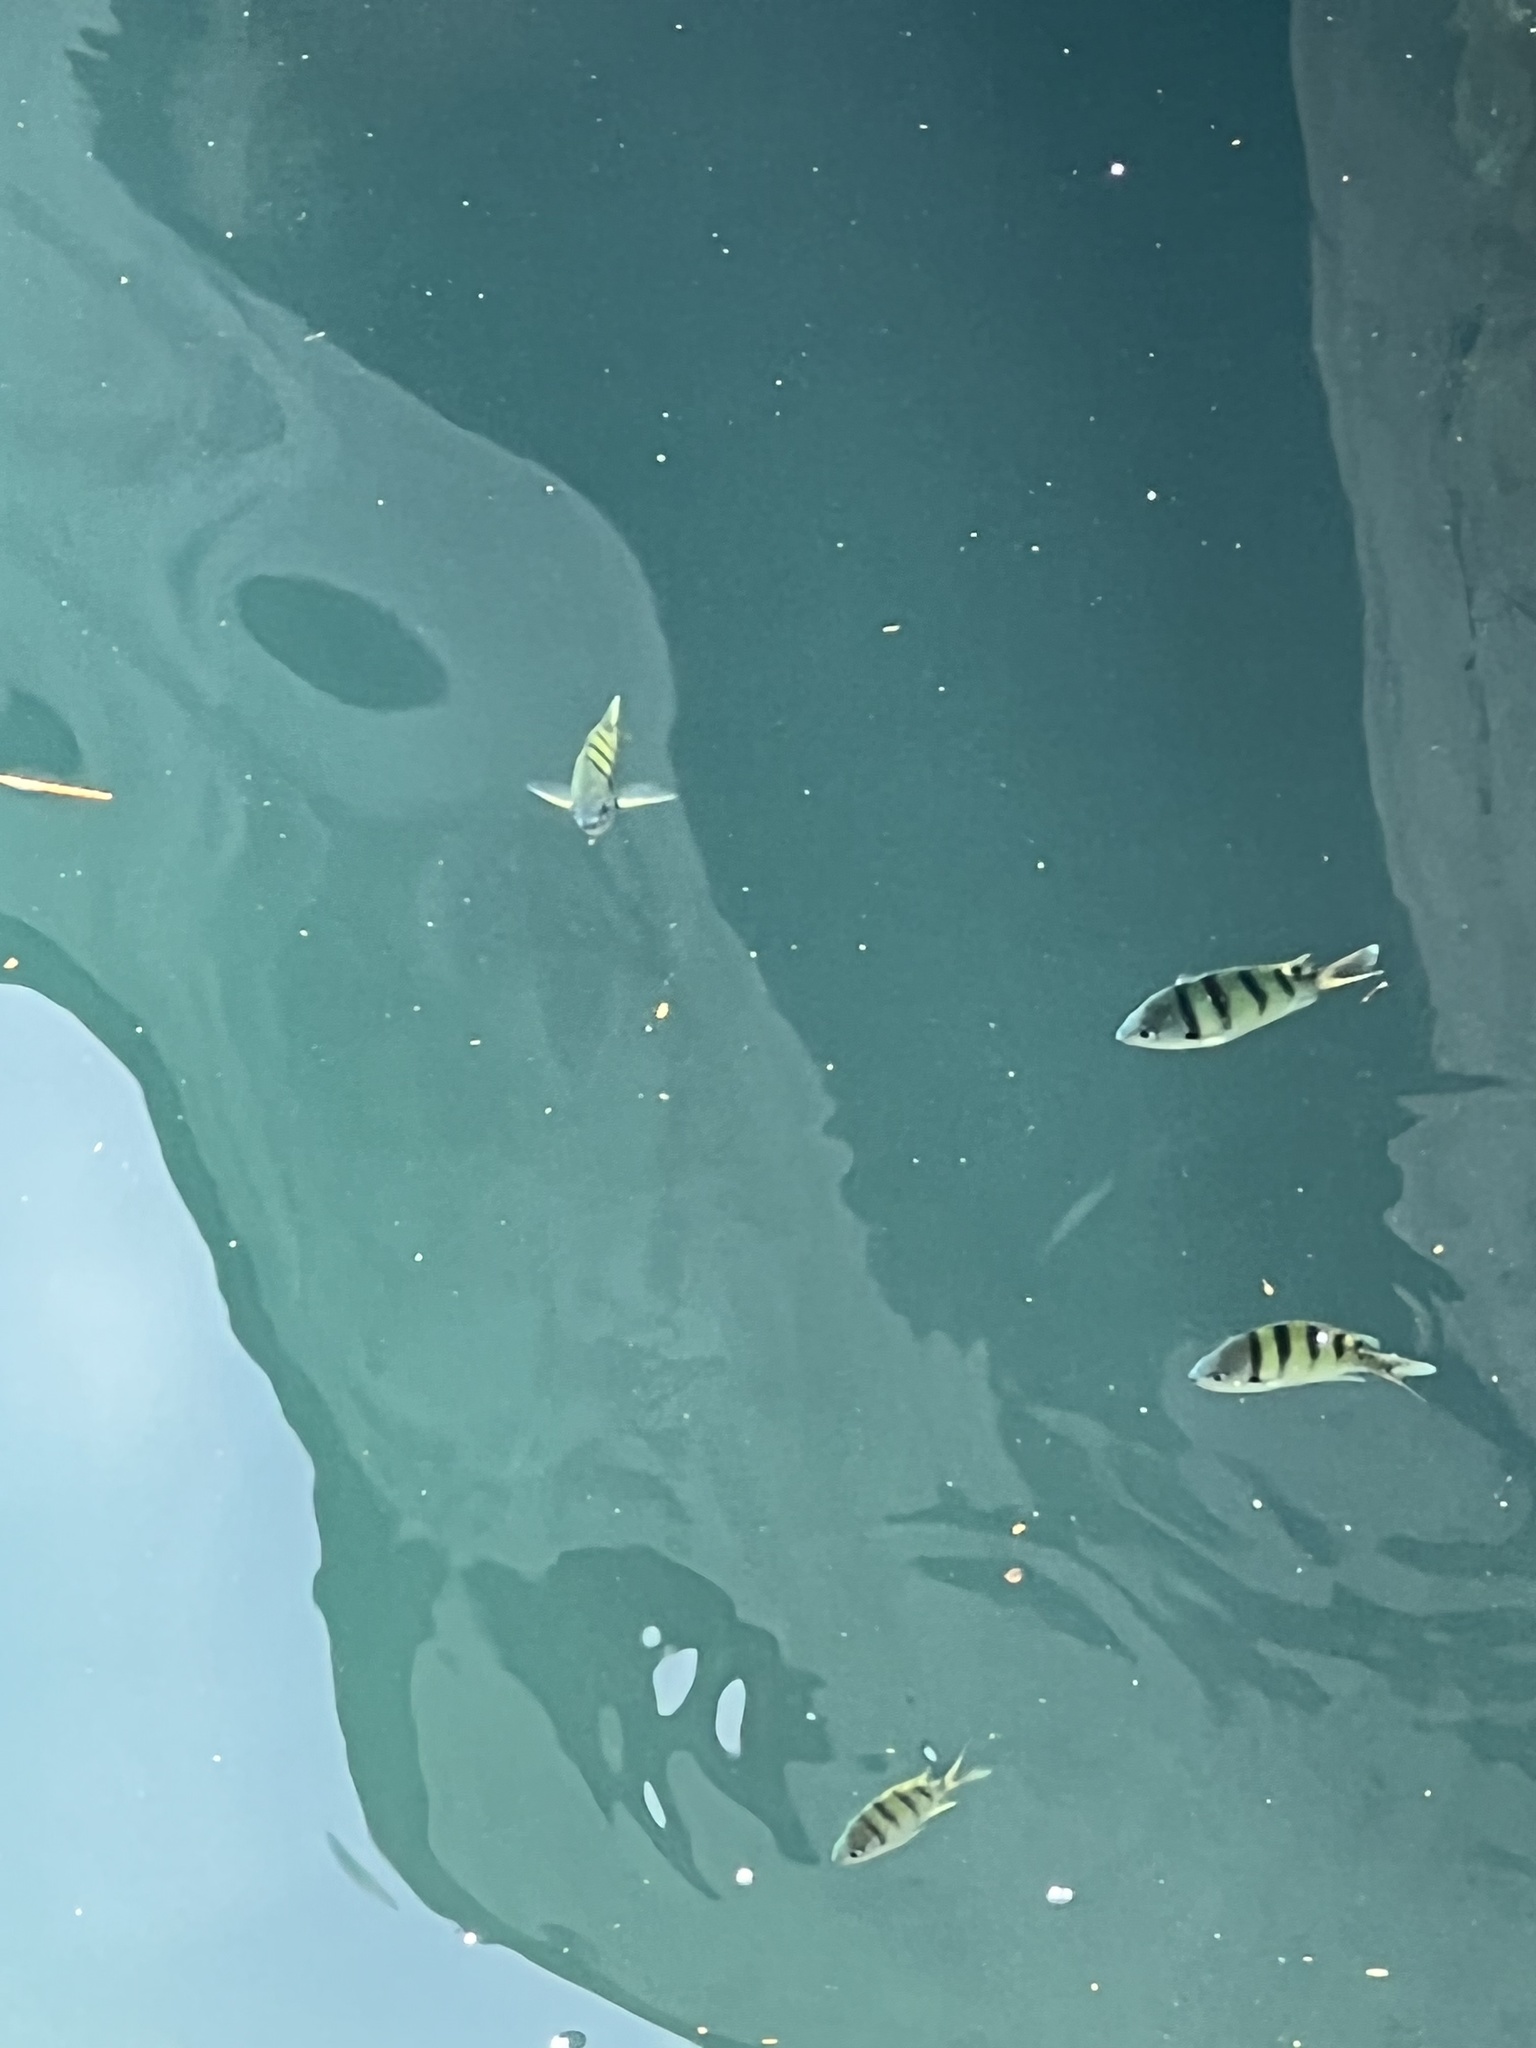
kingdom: Animalia
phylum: Chordata
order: Perciformes
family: Pomacentridae
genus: Abudefduf
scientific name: Abudefduf abdominalis
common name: Green damselfish
